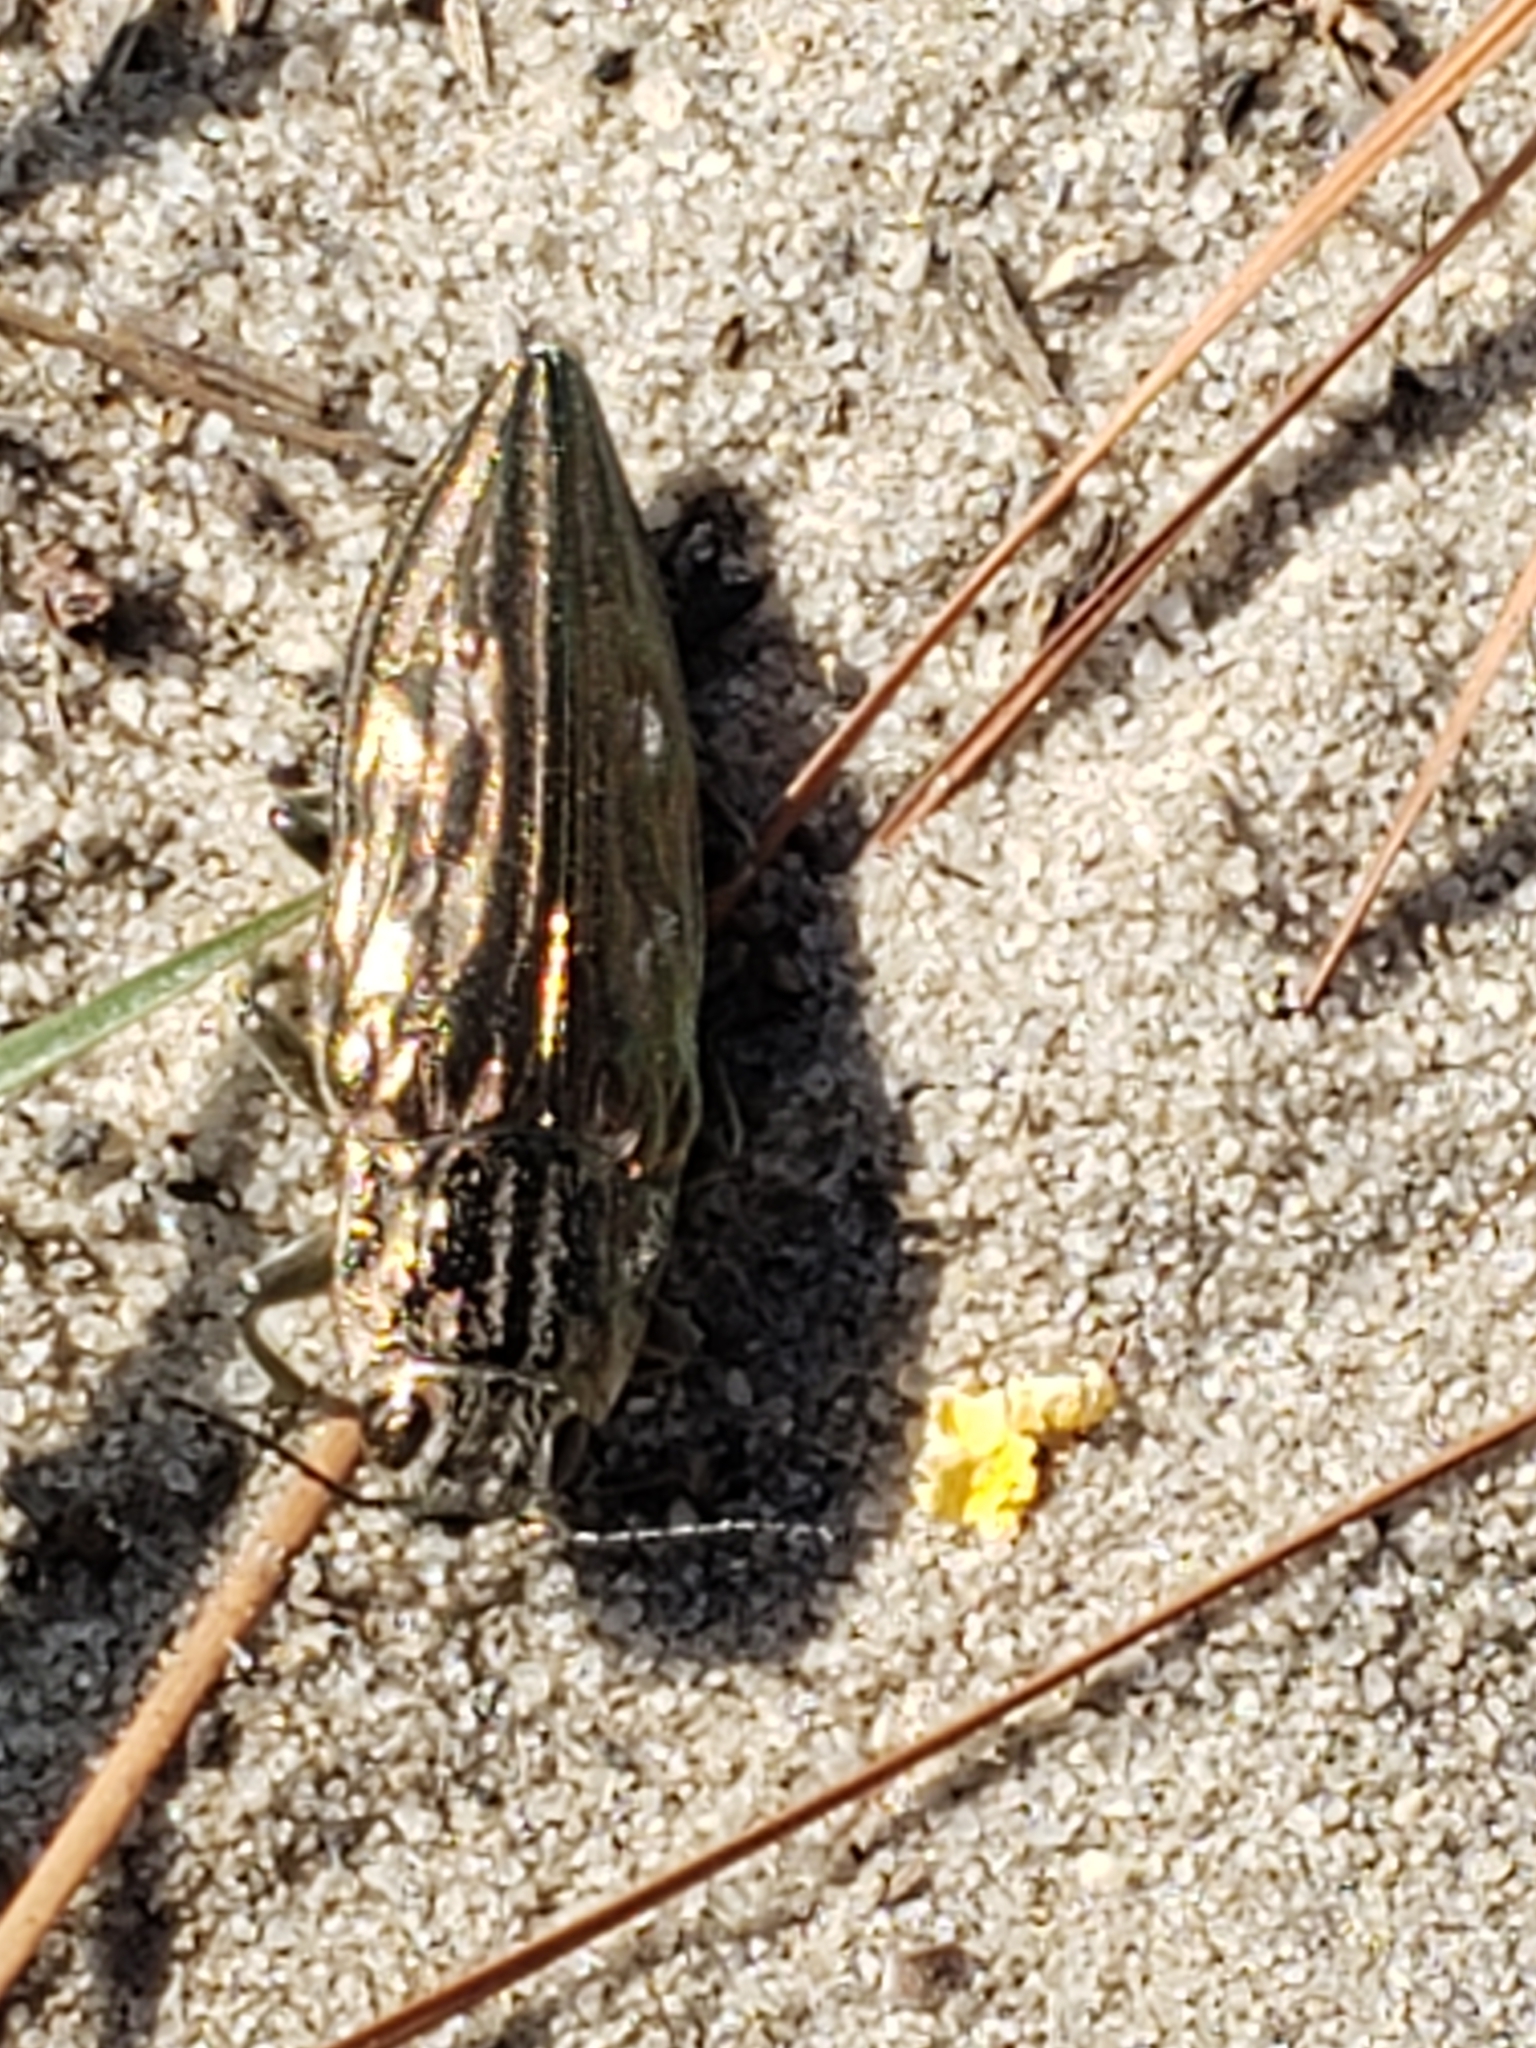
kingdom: Animalia
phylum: Arthropoda
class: Insecta
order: Coleoptera
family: Buprestidae
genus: Chalcophora
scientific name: Chalcophora georgiana
